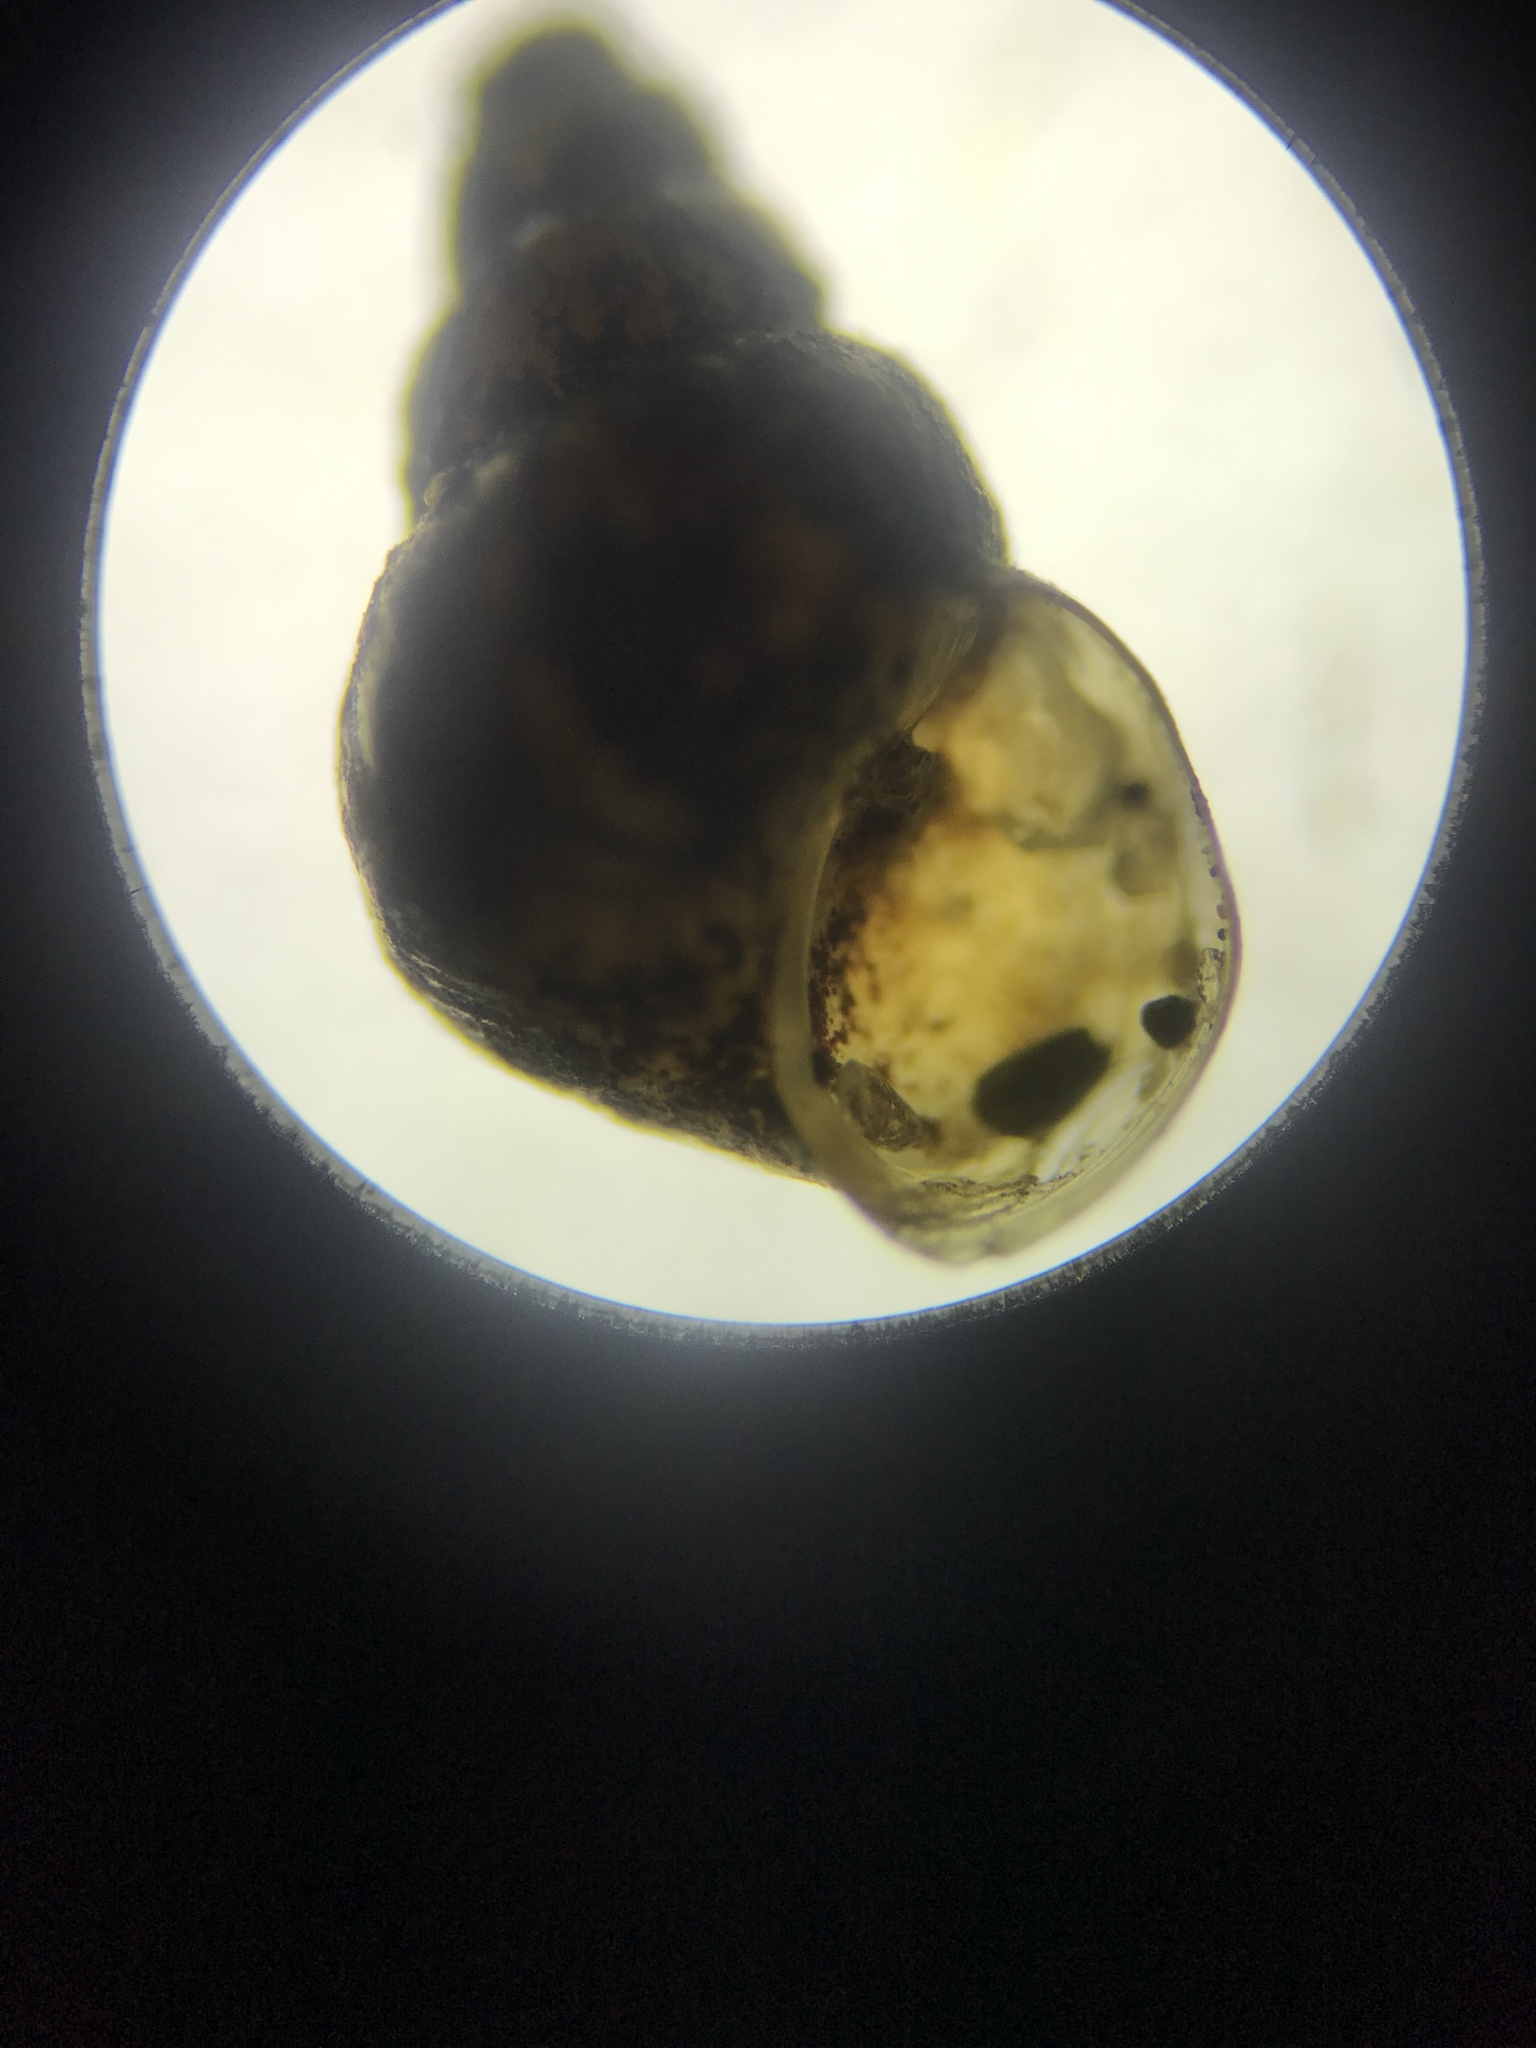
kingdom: Animalia
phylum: Mollusca
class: Gastropoda
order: Littorinimorpha
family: Tateidae
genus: Potamopyrgus
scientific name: Potamopyrgus antipodarum
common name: Jenkins' spire snail
